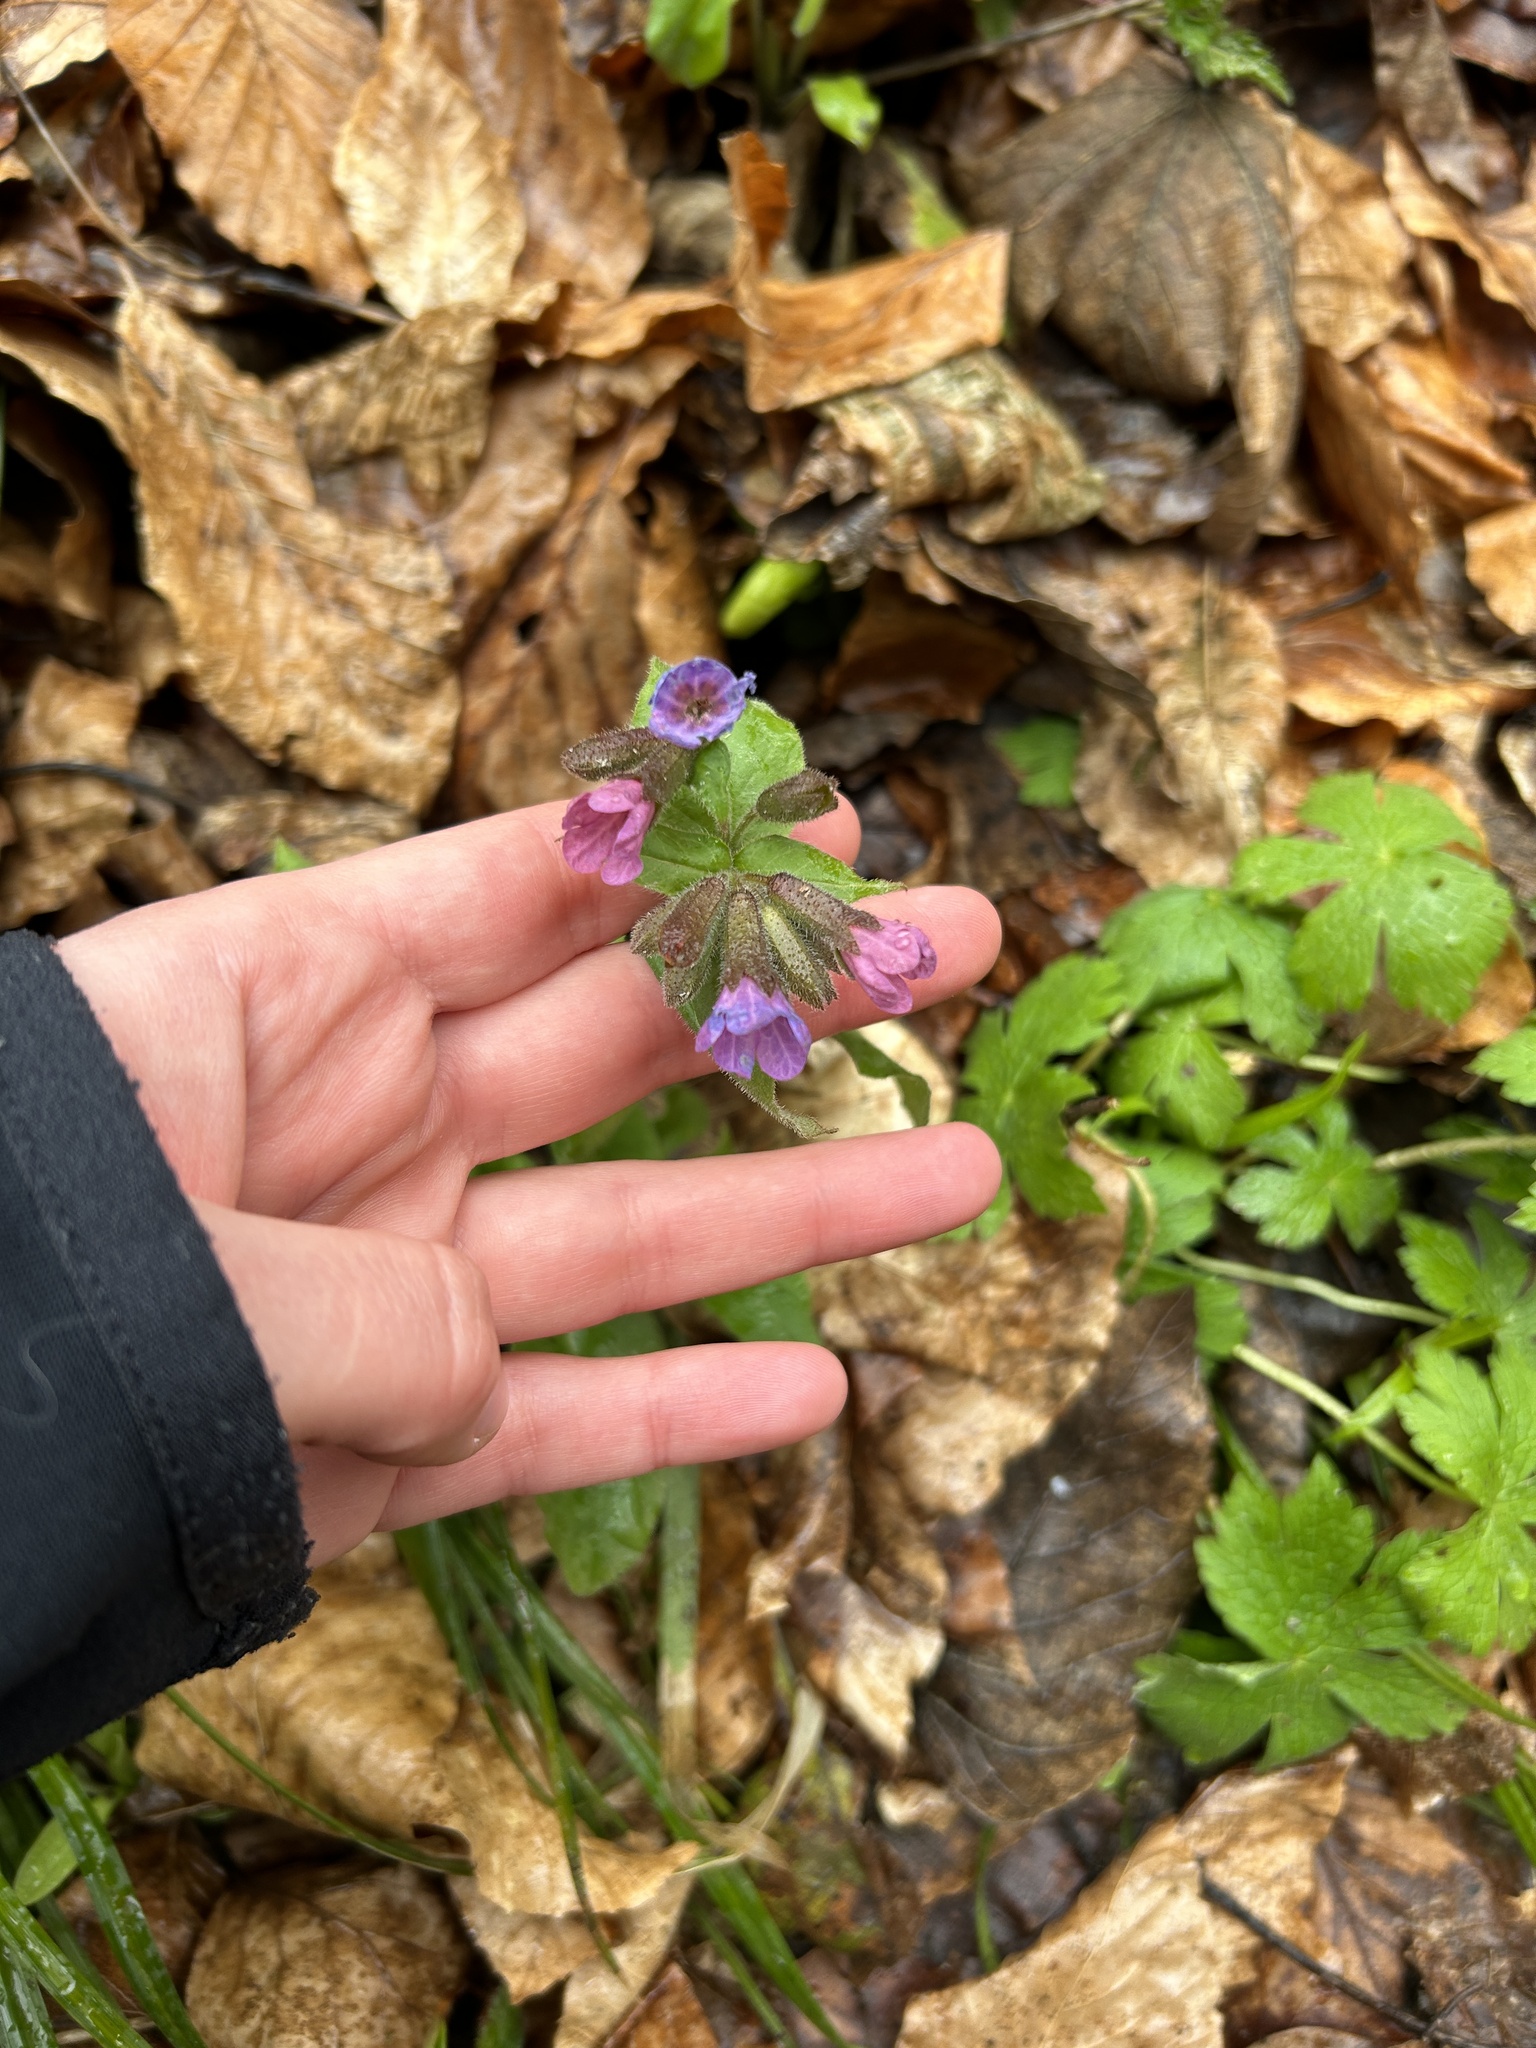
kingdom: Plantae
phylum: Tracheophyta
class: Magnoliopsida
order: Boraginales
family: Boraginaceae
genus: Pulmonaria
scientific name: Pulmonaria obscura
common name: Suffolk lungwort
